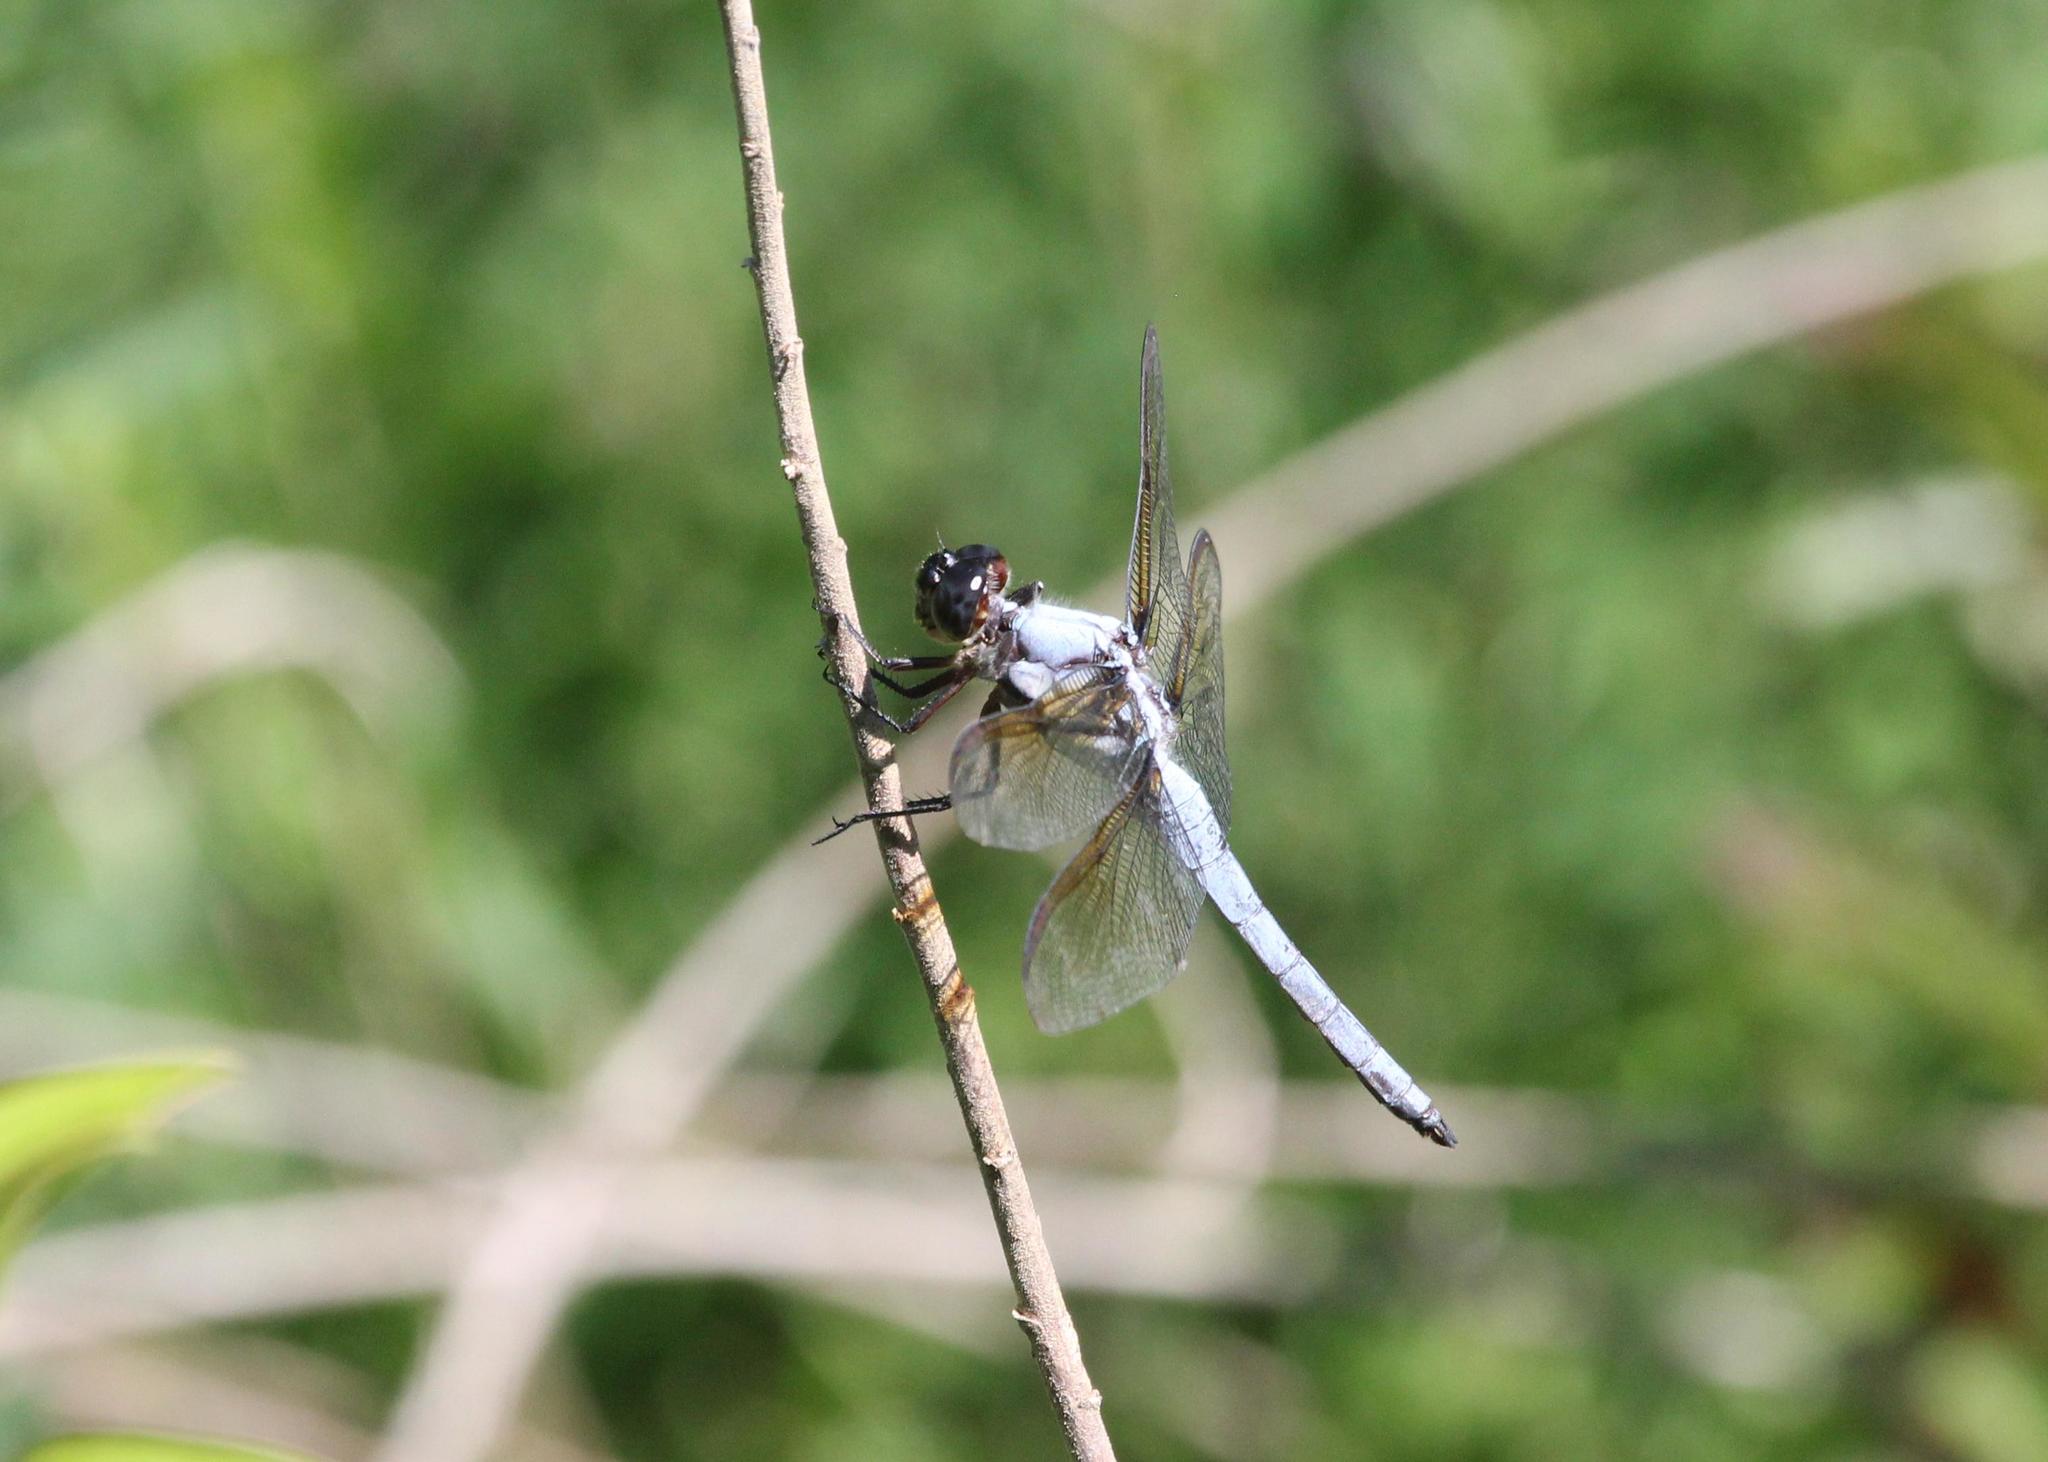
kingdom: Animalia
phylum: Arthropoda
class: Insecta
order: Odonata
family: Libellulidae
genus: Libellula
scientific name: Libellula flavida
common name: Yellow-sided skimmer
